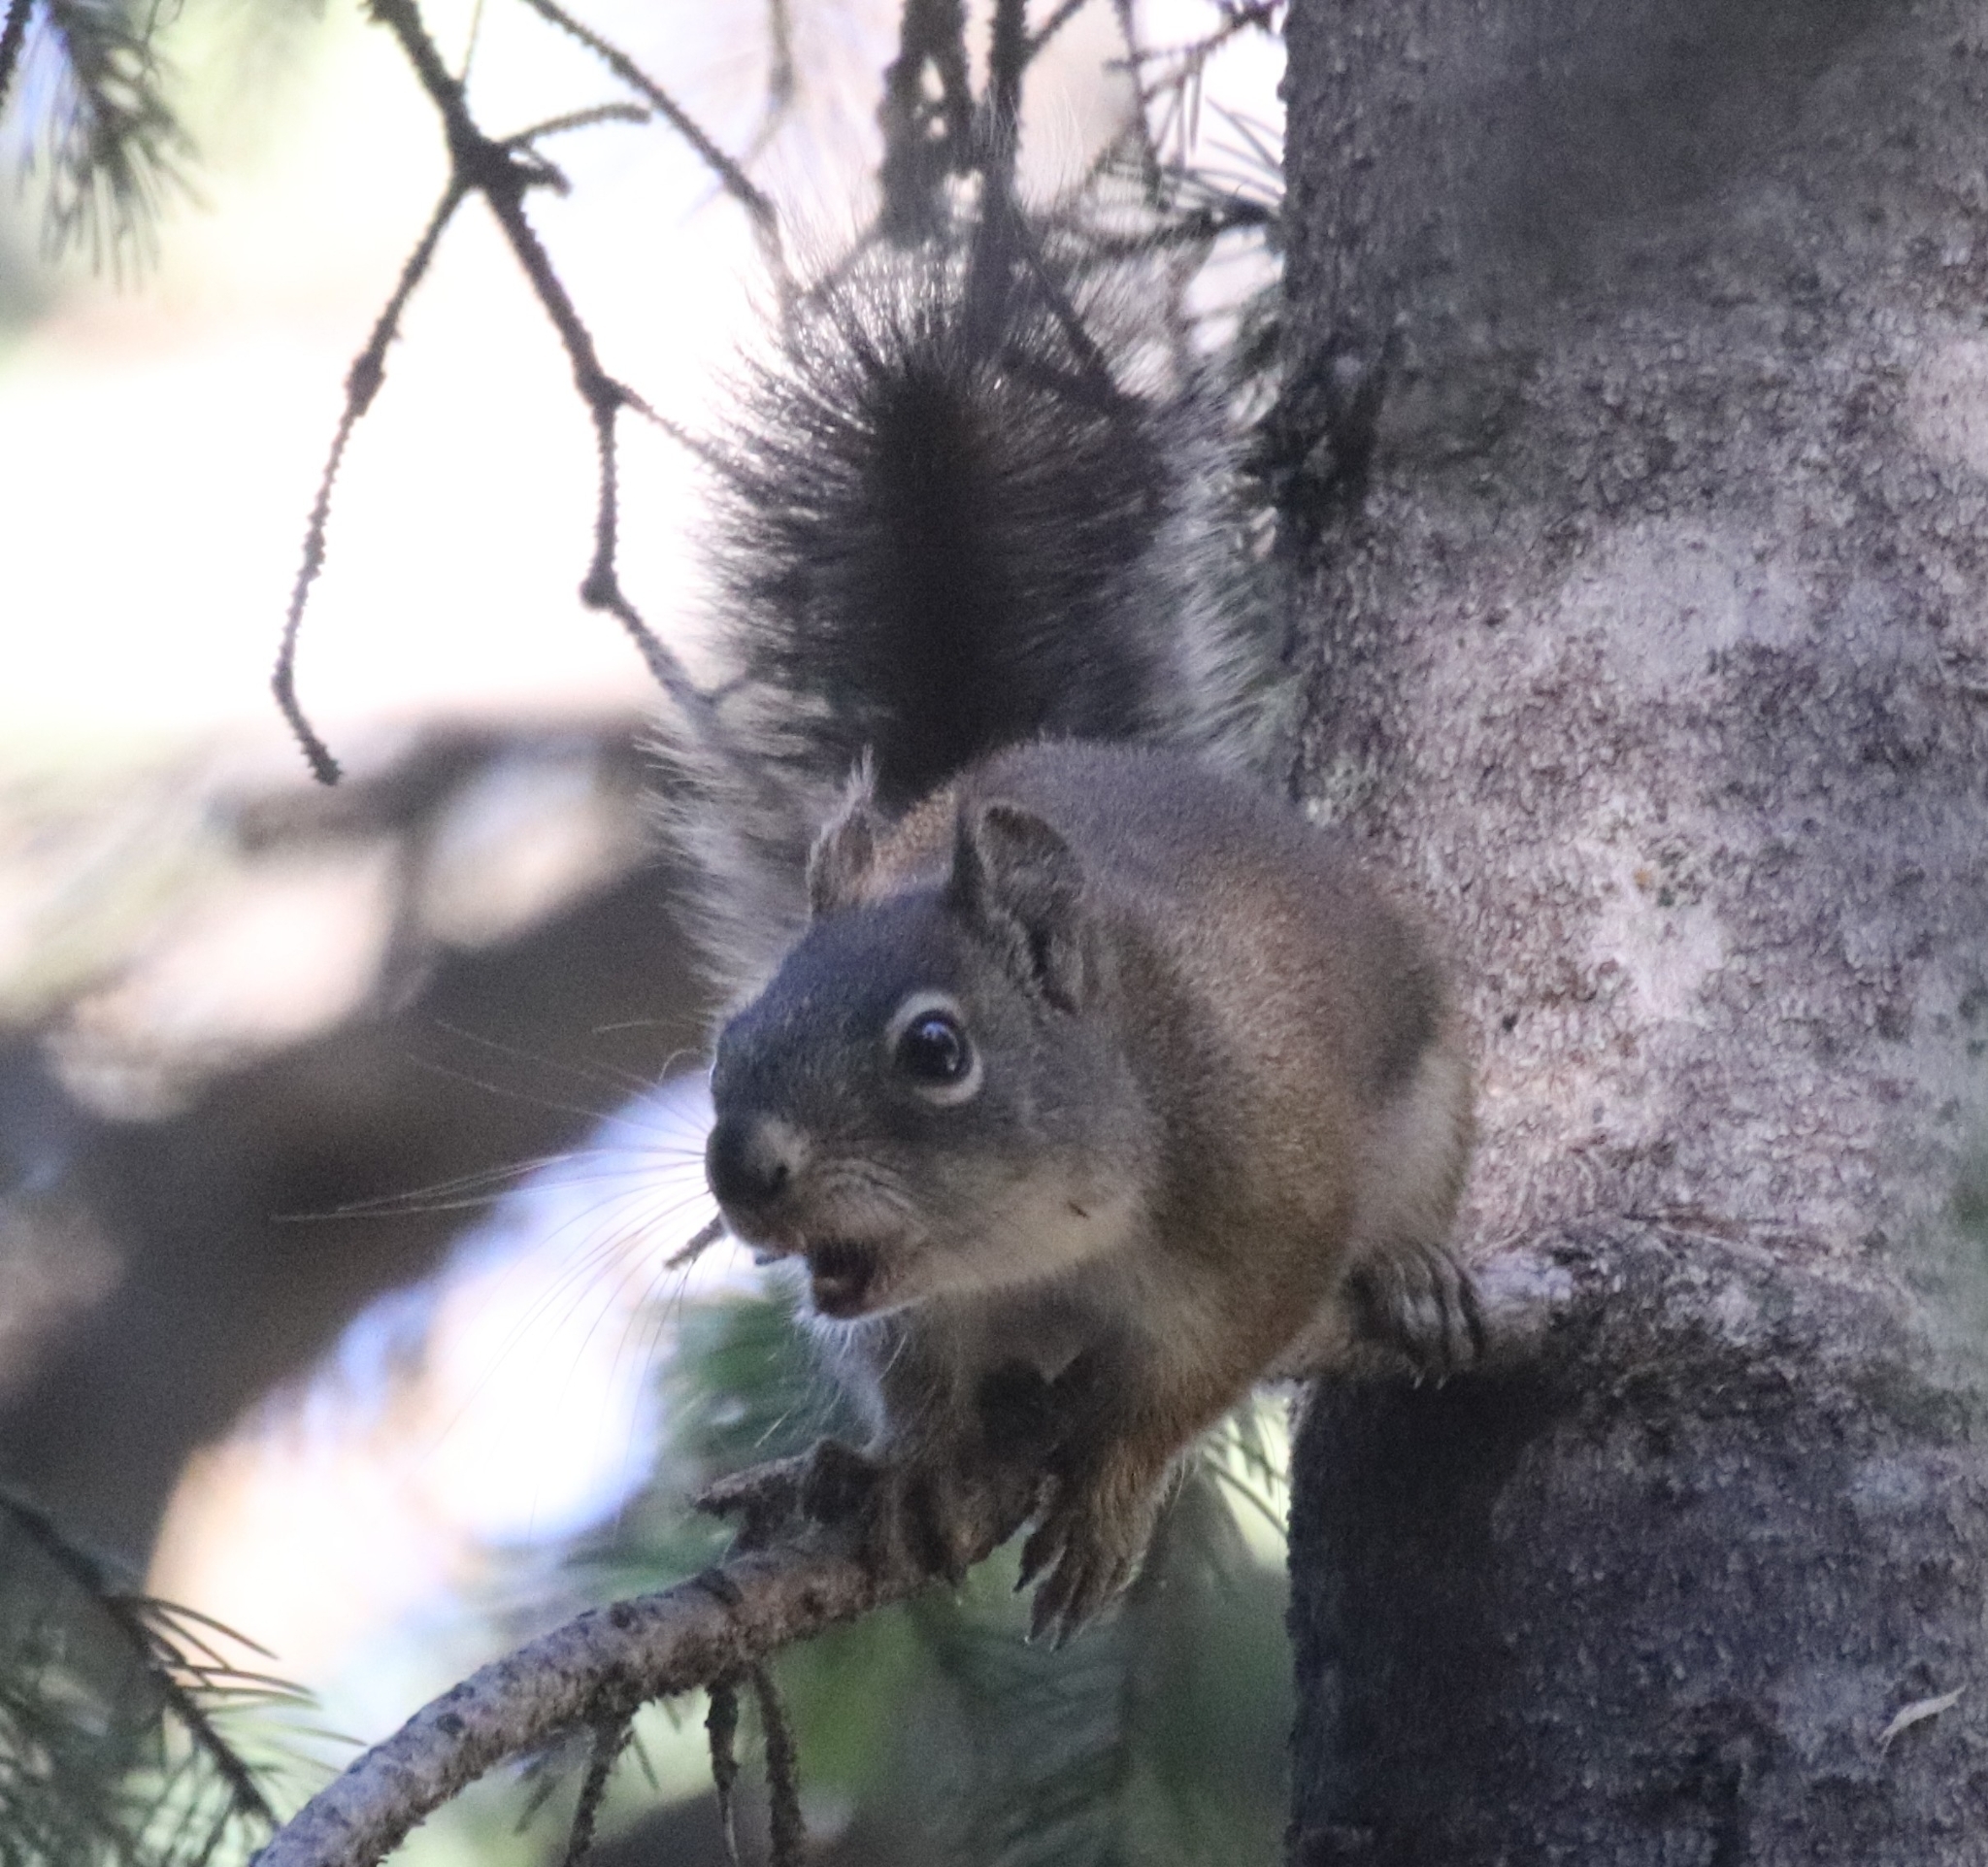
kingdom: Animalia
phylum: Chordata
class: Mammalia
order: Rodentia
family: Sciuridae
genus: Tamiasciurus
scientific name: Tamiasciurus hudsonicus
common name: Red squirrel
